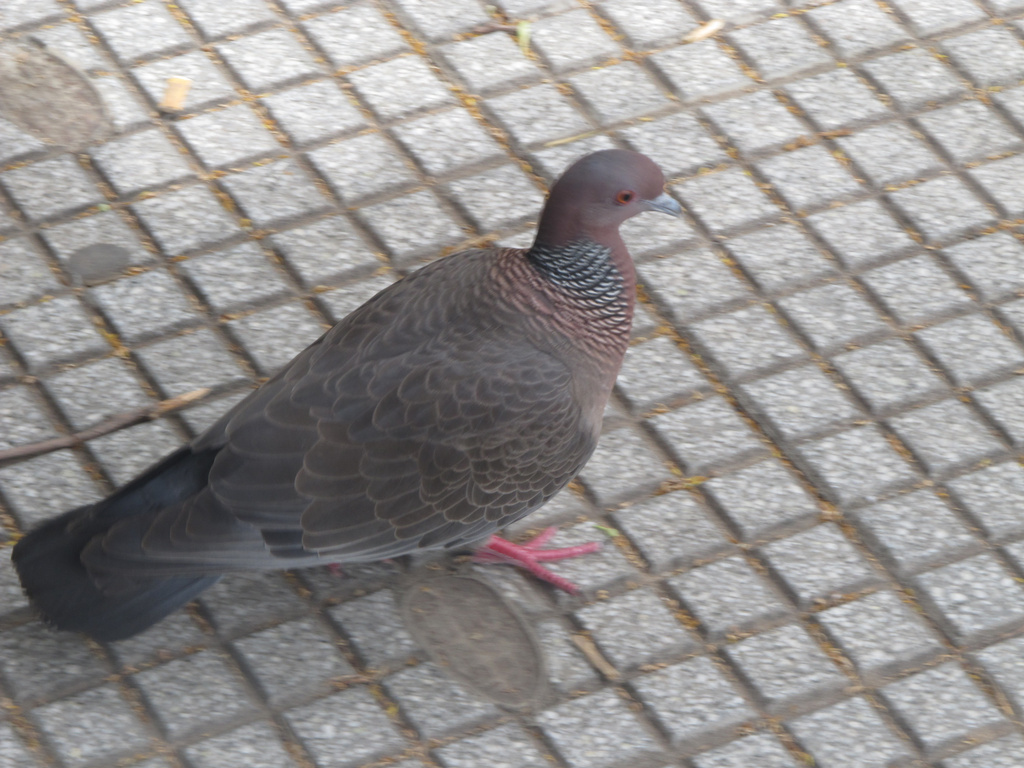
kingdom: Animalia
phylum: Chordata
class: Aves
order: Columbiformes
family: Columbidae
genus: Patagioenas
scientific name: Patagioenas picazuro
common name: Picazuro pigeon
